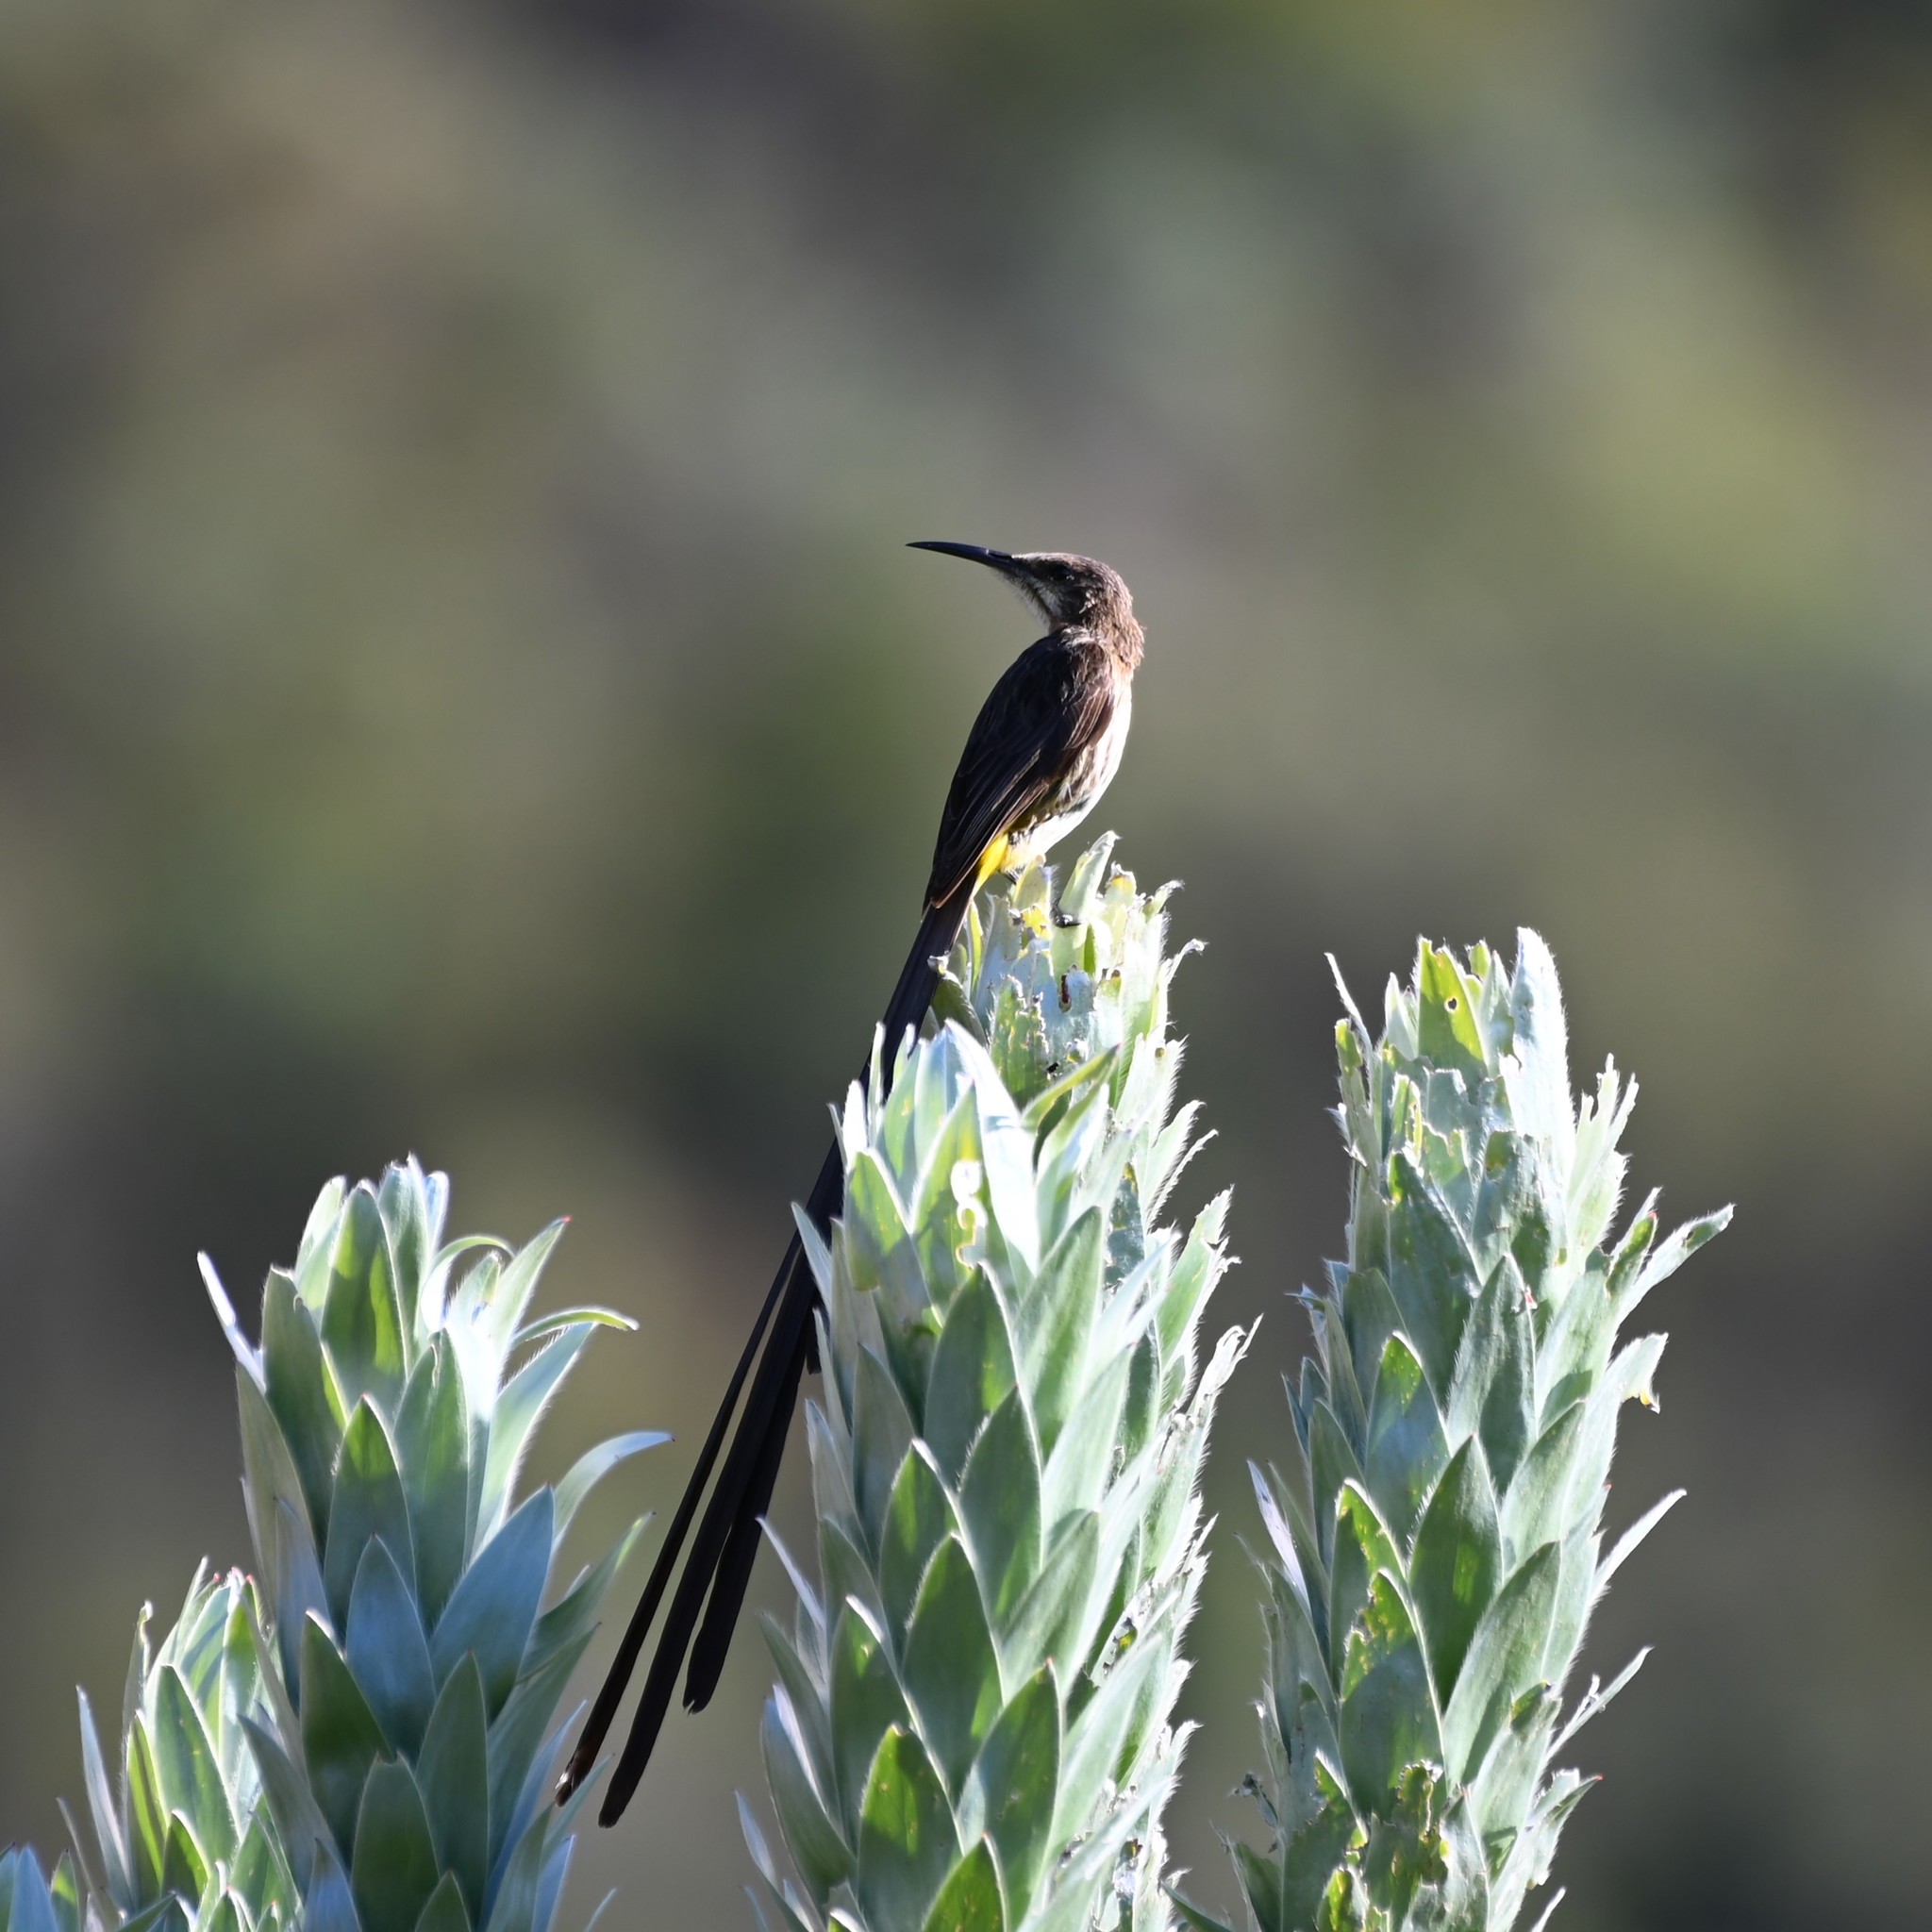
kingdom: Animalia
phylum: Chordata
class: Aves
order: Passeriformes
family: Promeropidae
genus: Promerops
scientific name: Promerops cafer
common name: Cape sugarbird
